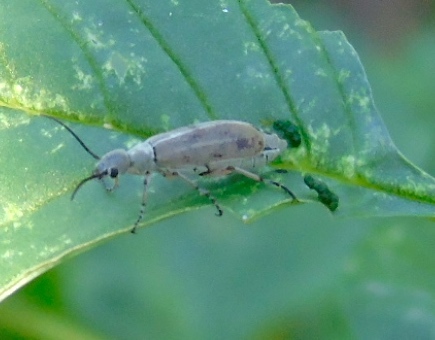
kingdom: Animalia
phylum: Arthropoda
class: Insecta
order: Coleoptera
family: Meloidae
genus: Epicauta
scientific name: Epicauta cupraeola
